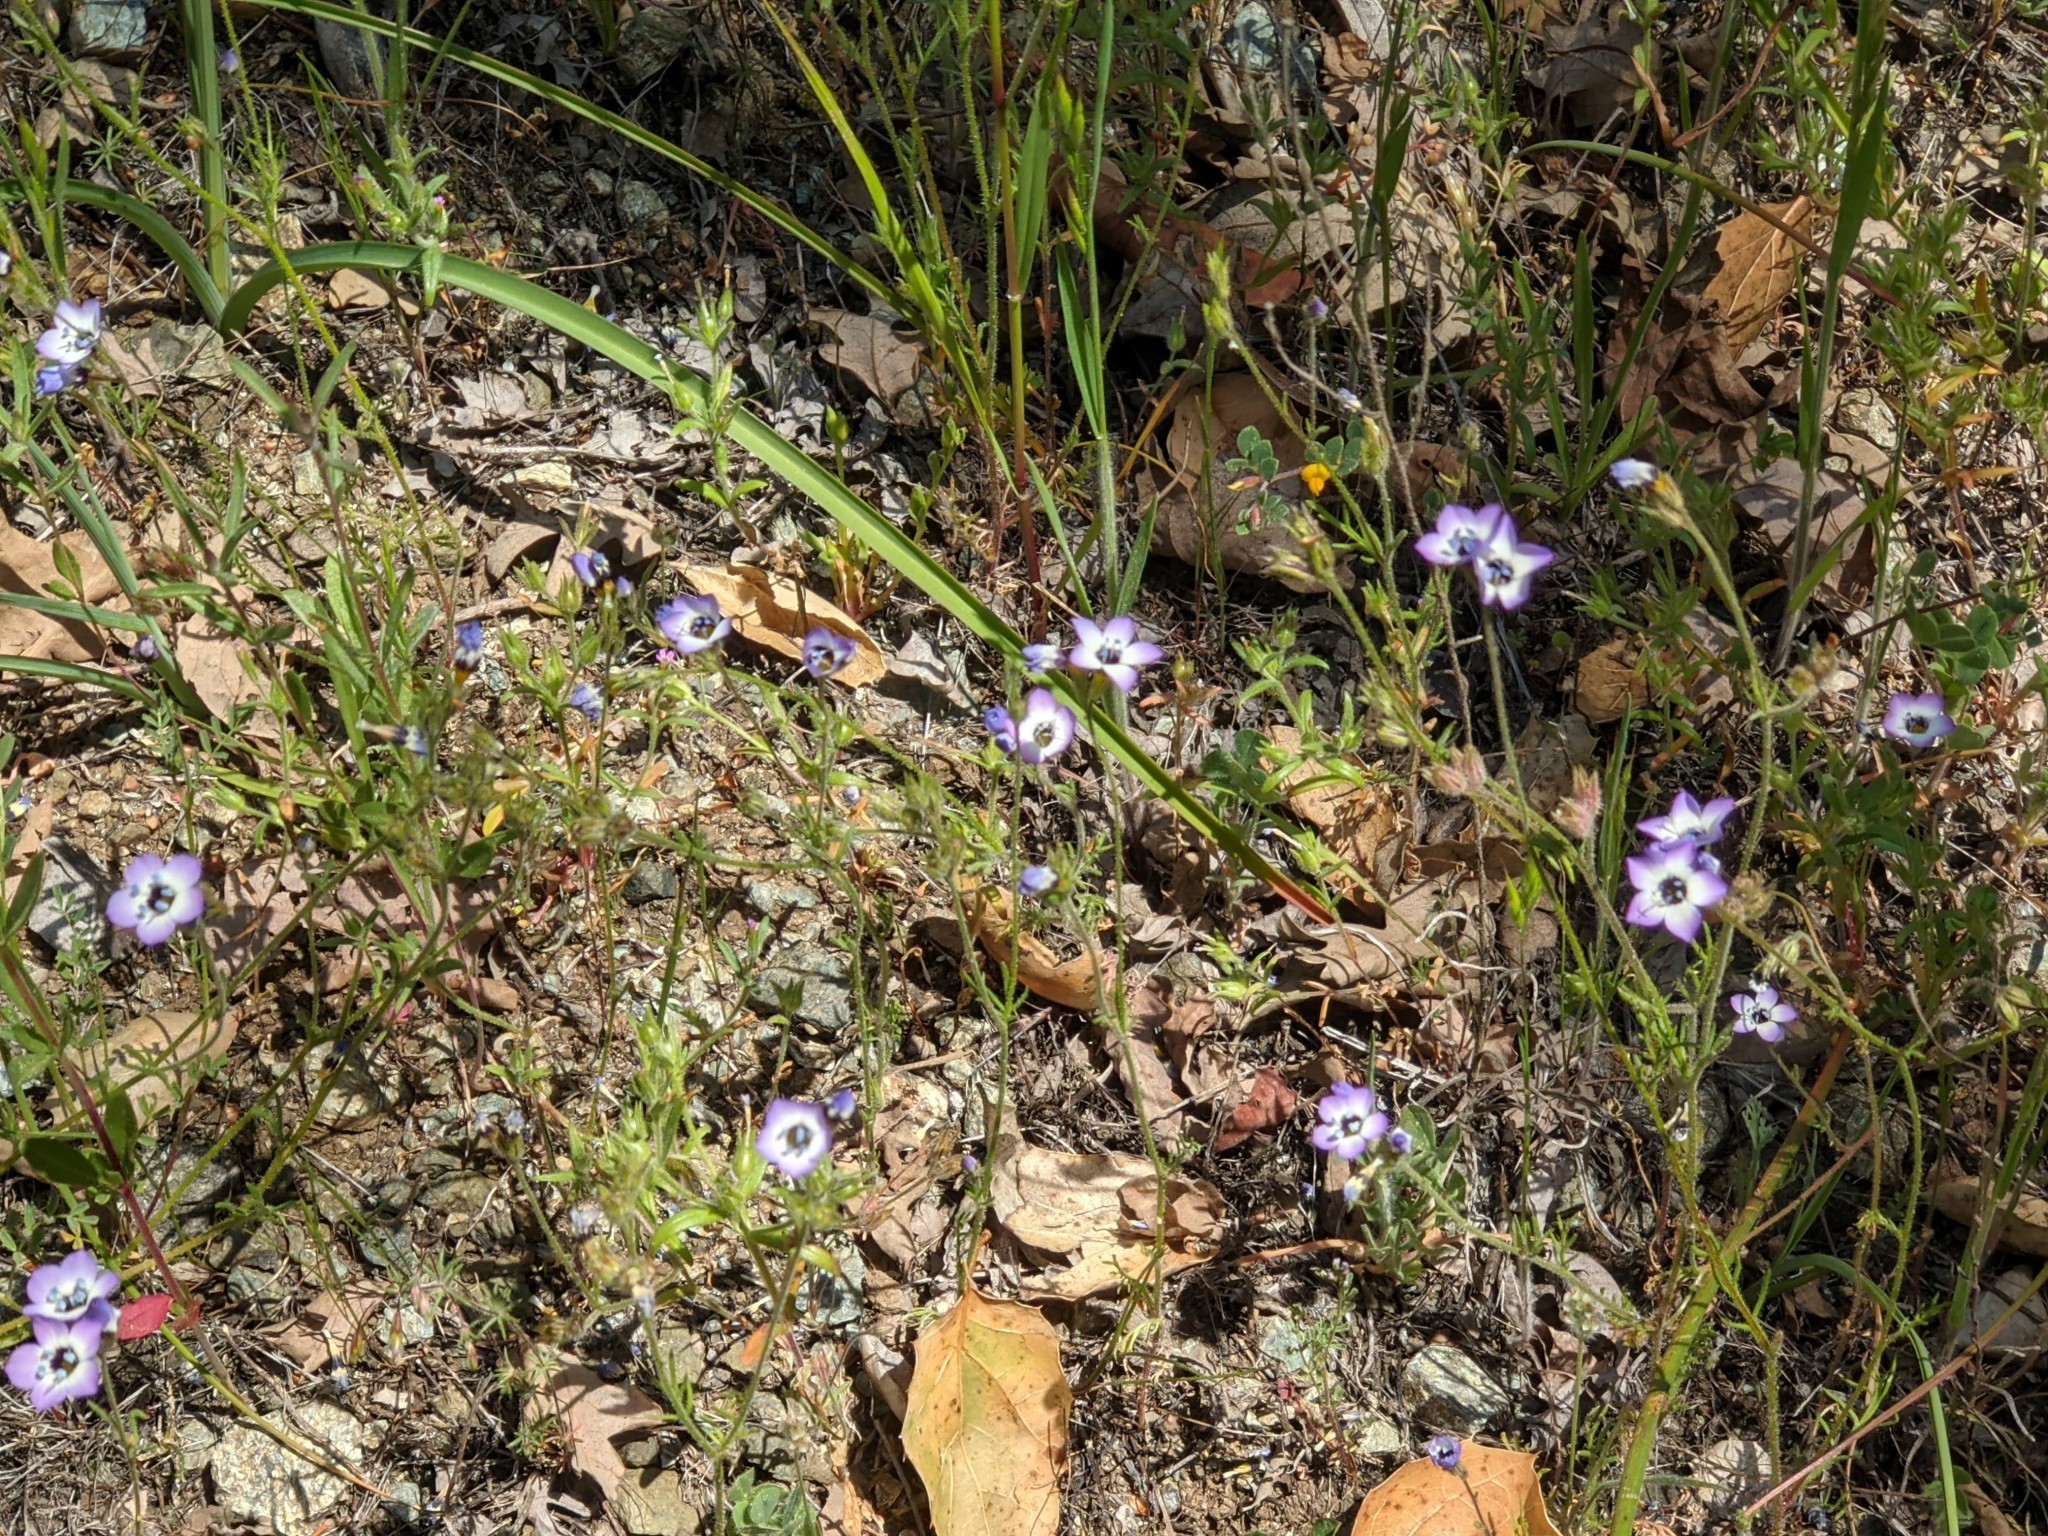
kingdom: Plantae
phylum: Tracheophyta
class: Magnoliopsida
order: Ericales
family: Polemoniaceae
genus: Gilia
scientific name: Gilia tricolor
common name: Bird's-eyes
